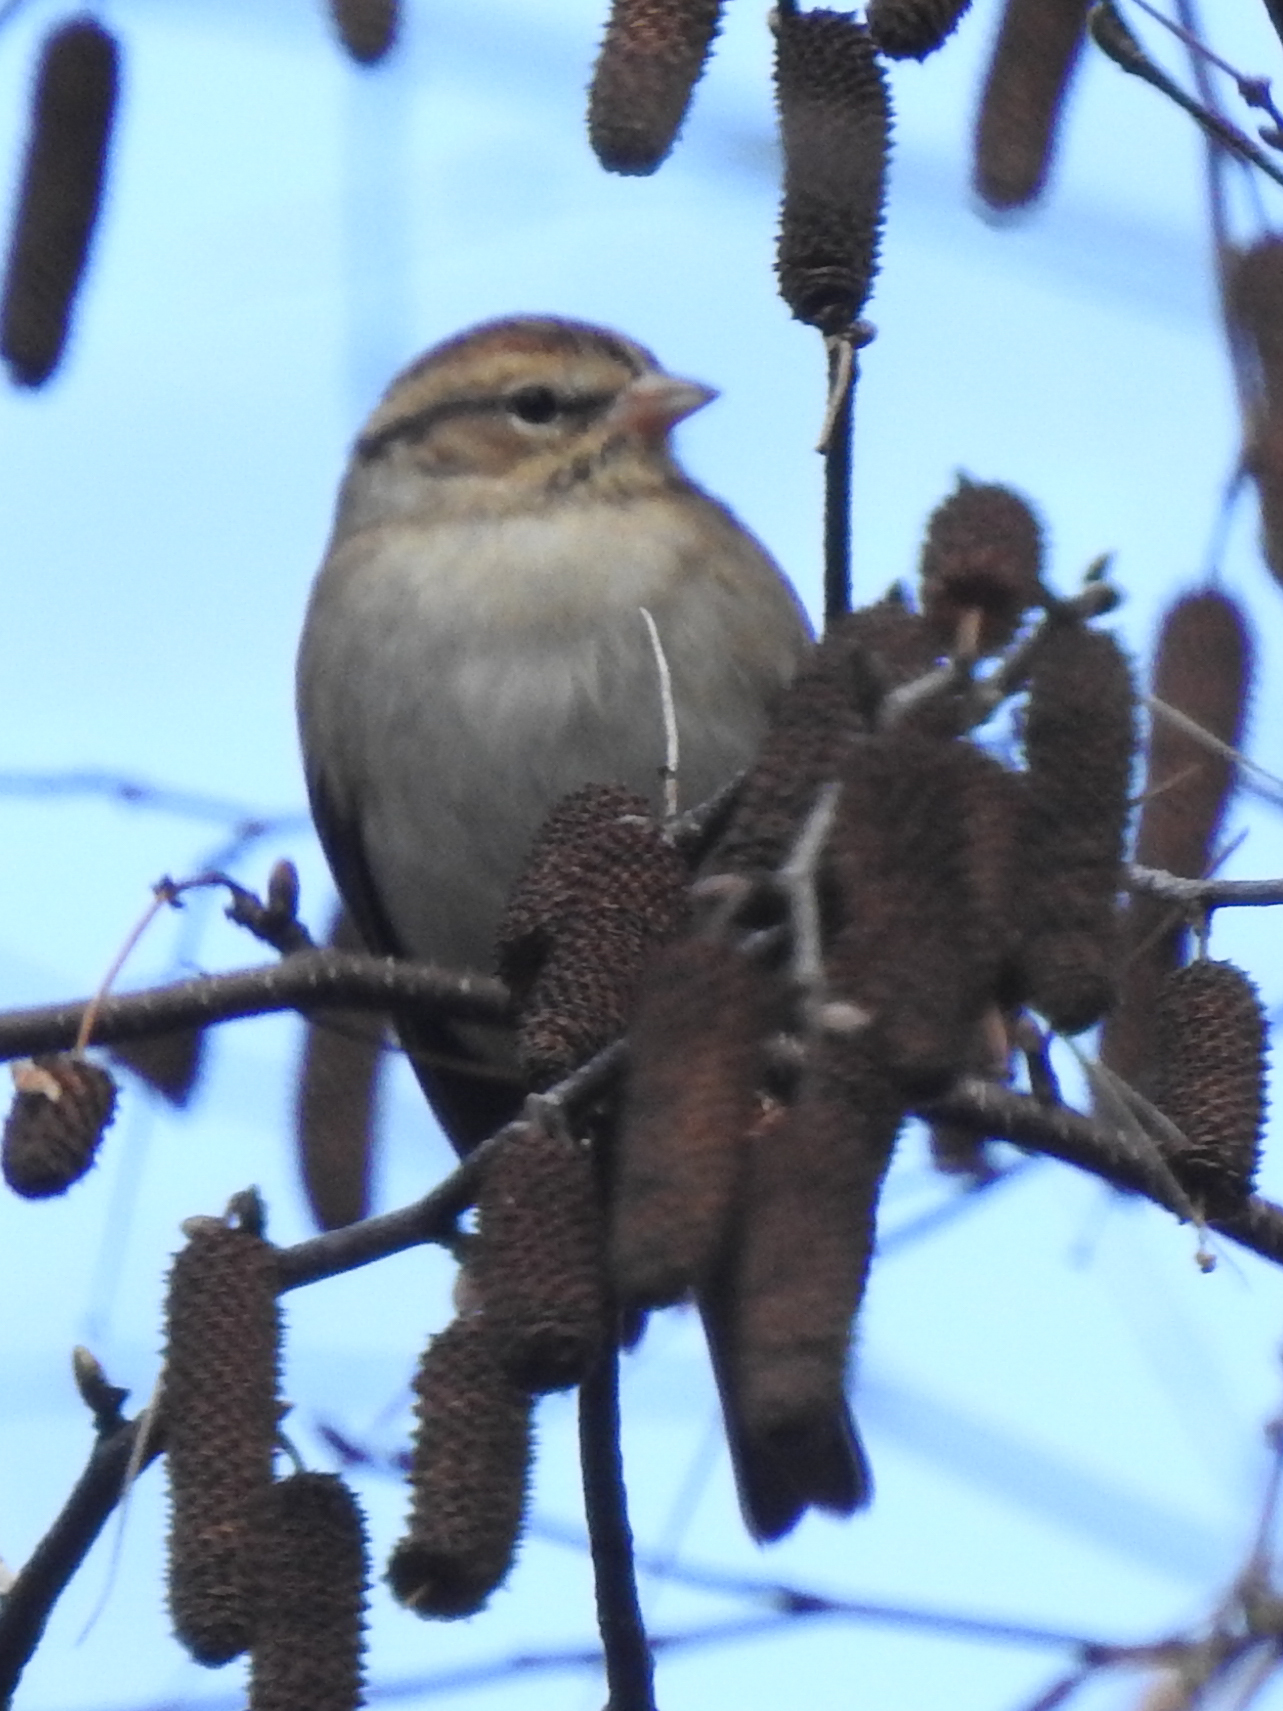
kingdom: Animalia
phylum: Chordata
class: Aves
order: Passeriformes
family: Passerellidae
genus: Spizella
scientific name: Spizella passerina
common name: Chipping sparrow
